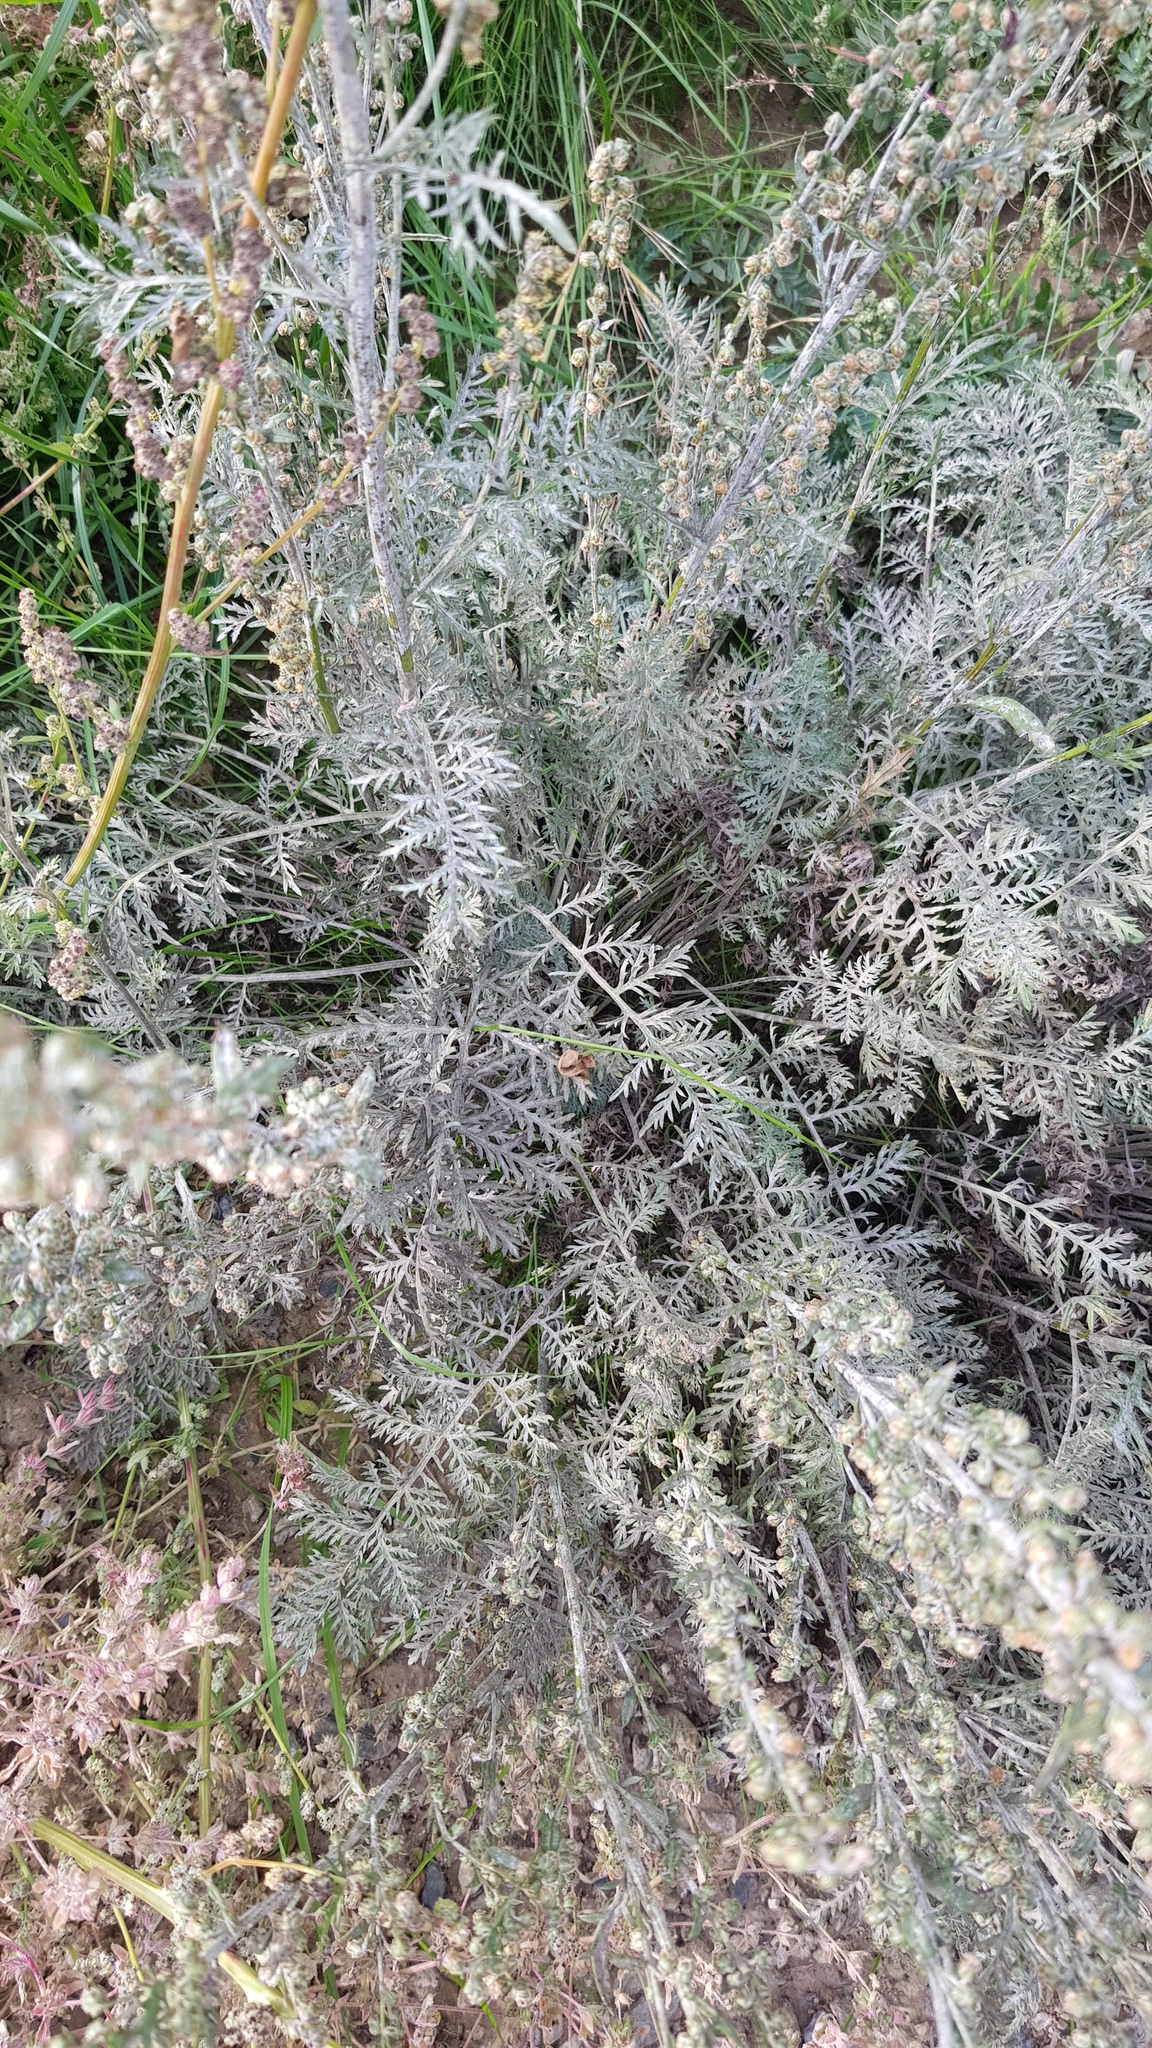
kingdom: Plantae
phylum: Tracheophyta
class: Magnoliopsida
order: Asterales
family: Asteraceae
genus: Artemisia
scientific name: Artemisia gmelinii
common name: Gmelin's wormwood
